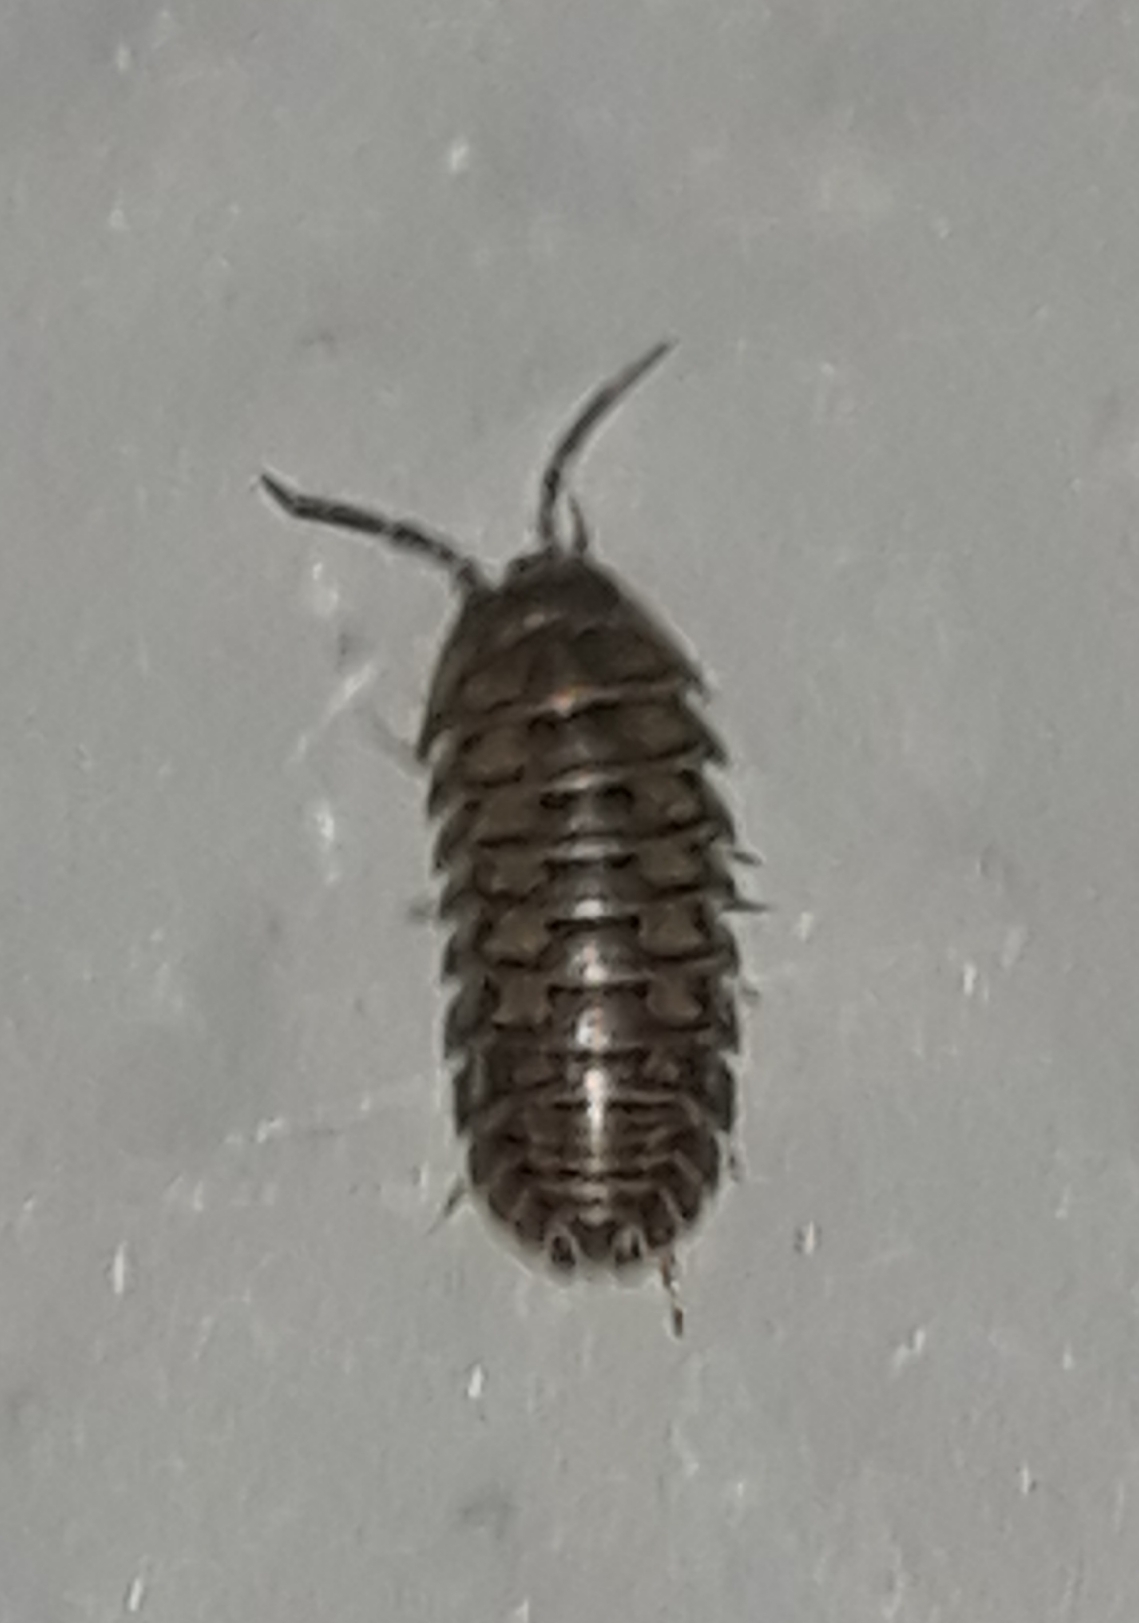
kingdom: Animalia
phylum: Arthropoda
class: Malacostraca
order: Isopoda
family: Armadillidiidae
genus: Armadillidium
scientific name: Armadillidium nasatum
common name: Isopod
